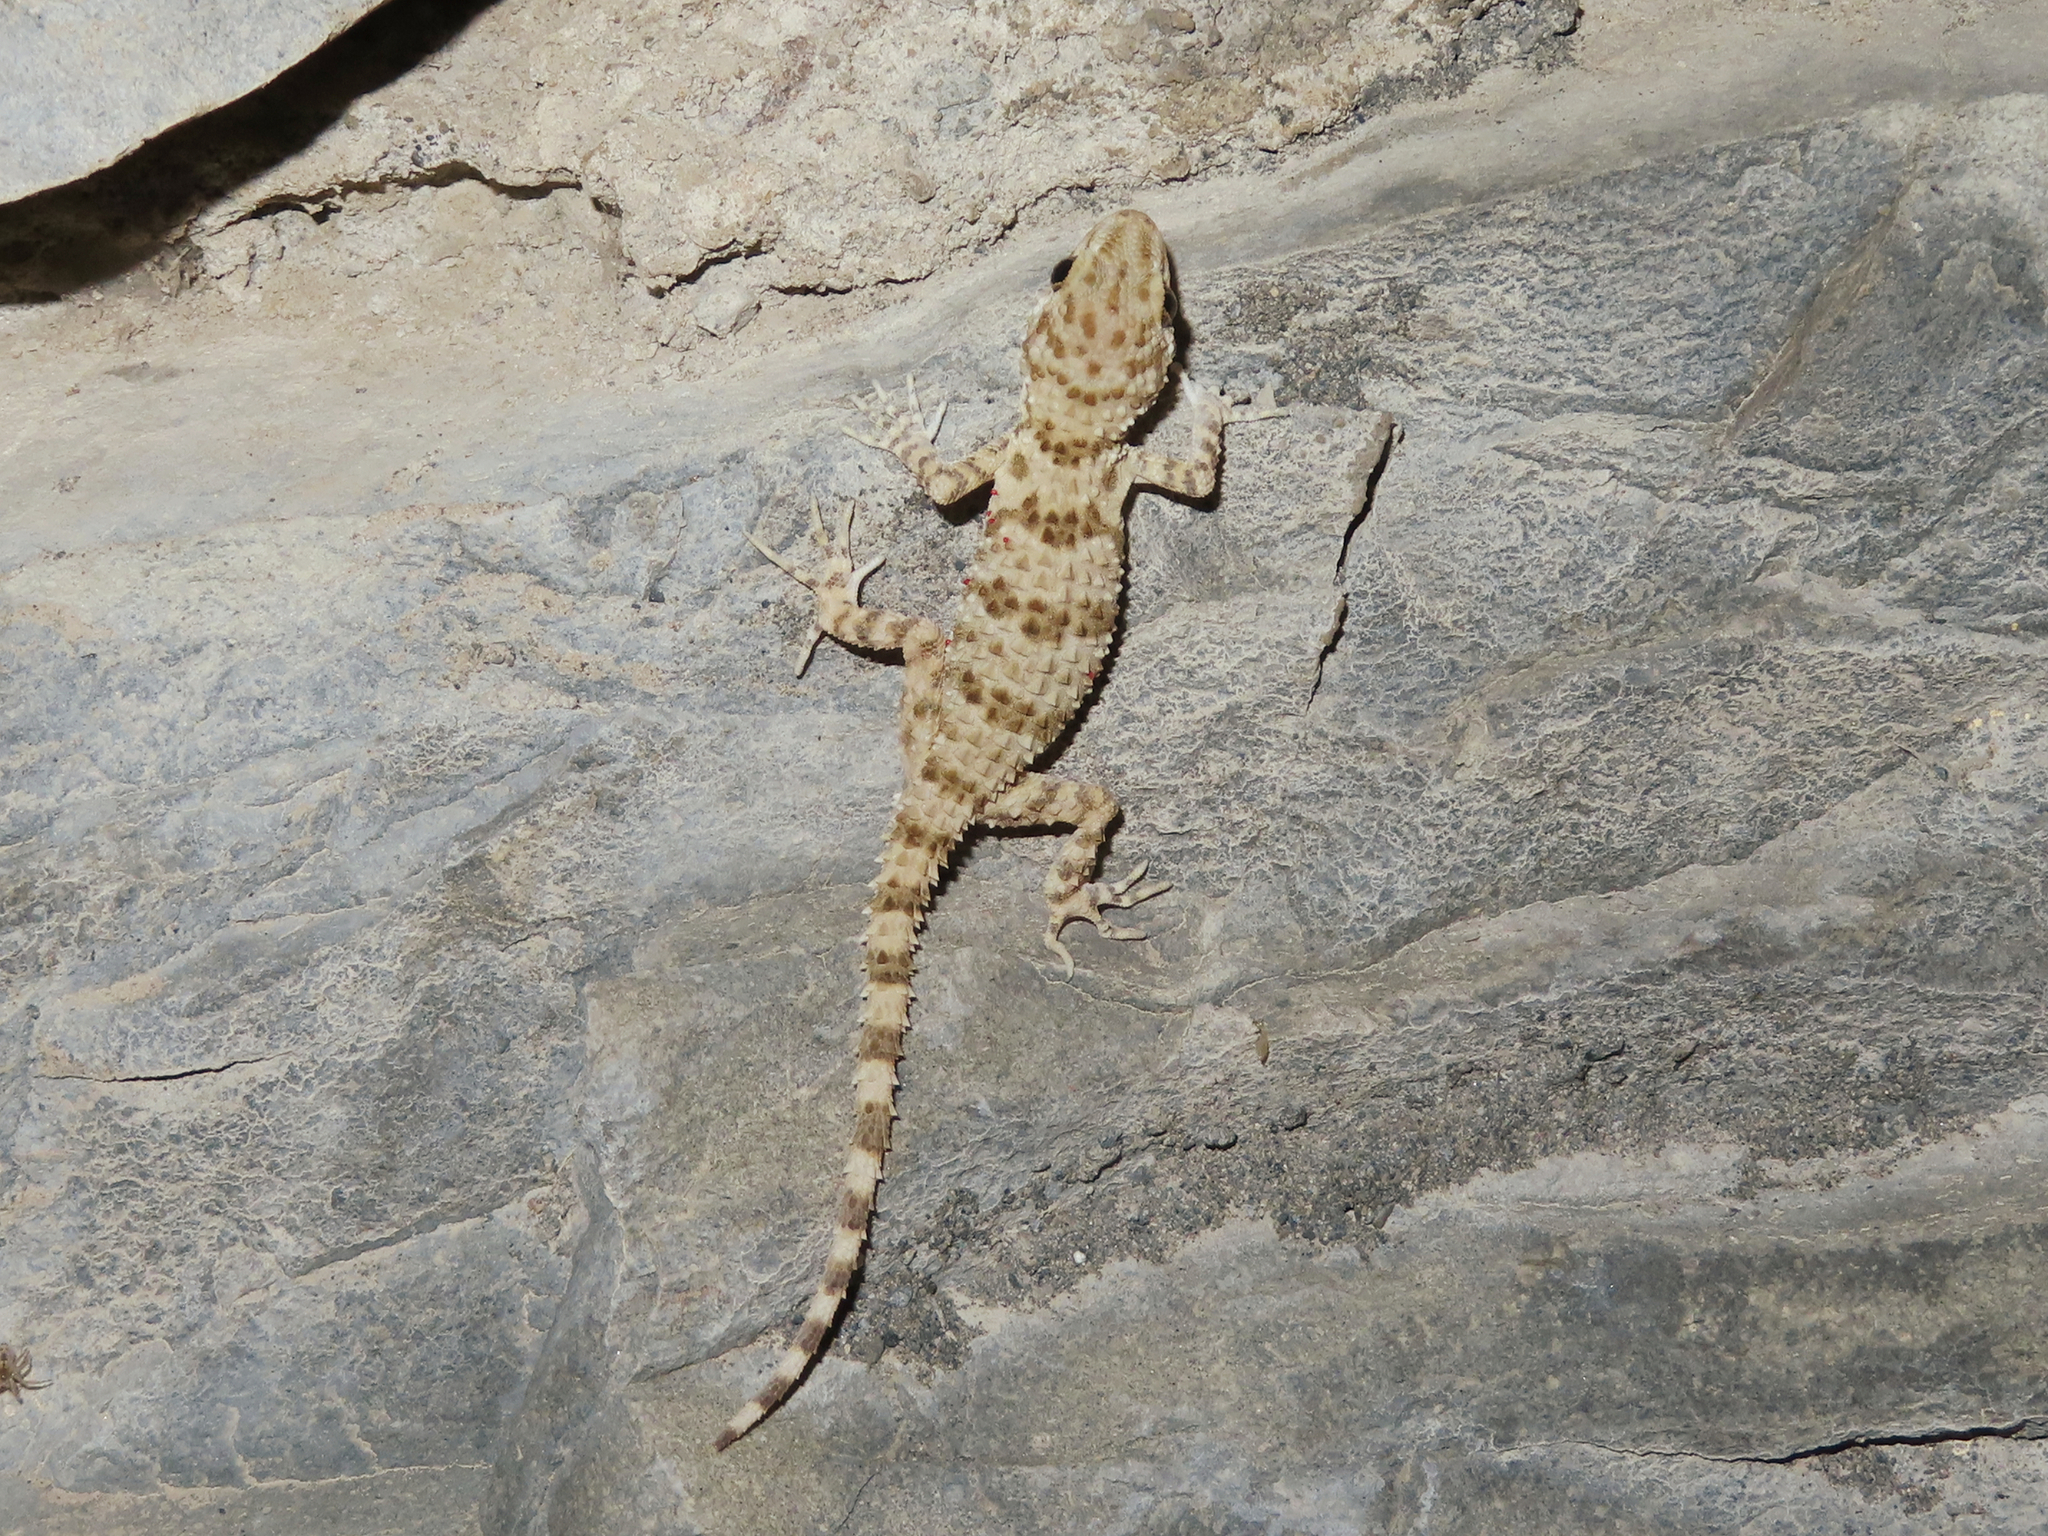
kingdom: Animalia
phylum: Chordata
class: Squamata
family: Gekkonidae
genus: Tenuidactylus
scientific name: Tenuidactylus caspius
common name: Caspian bent-toed gecko
